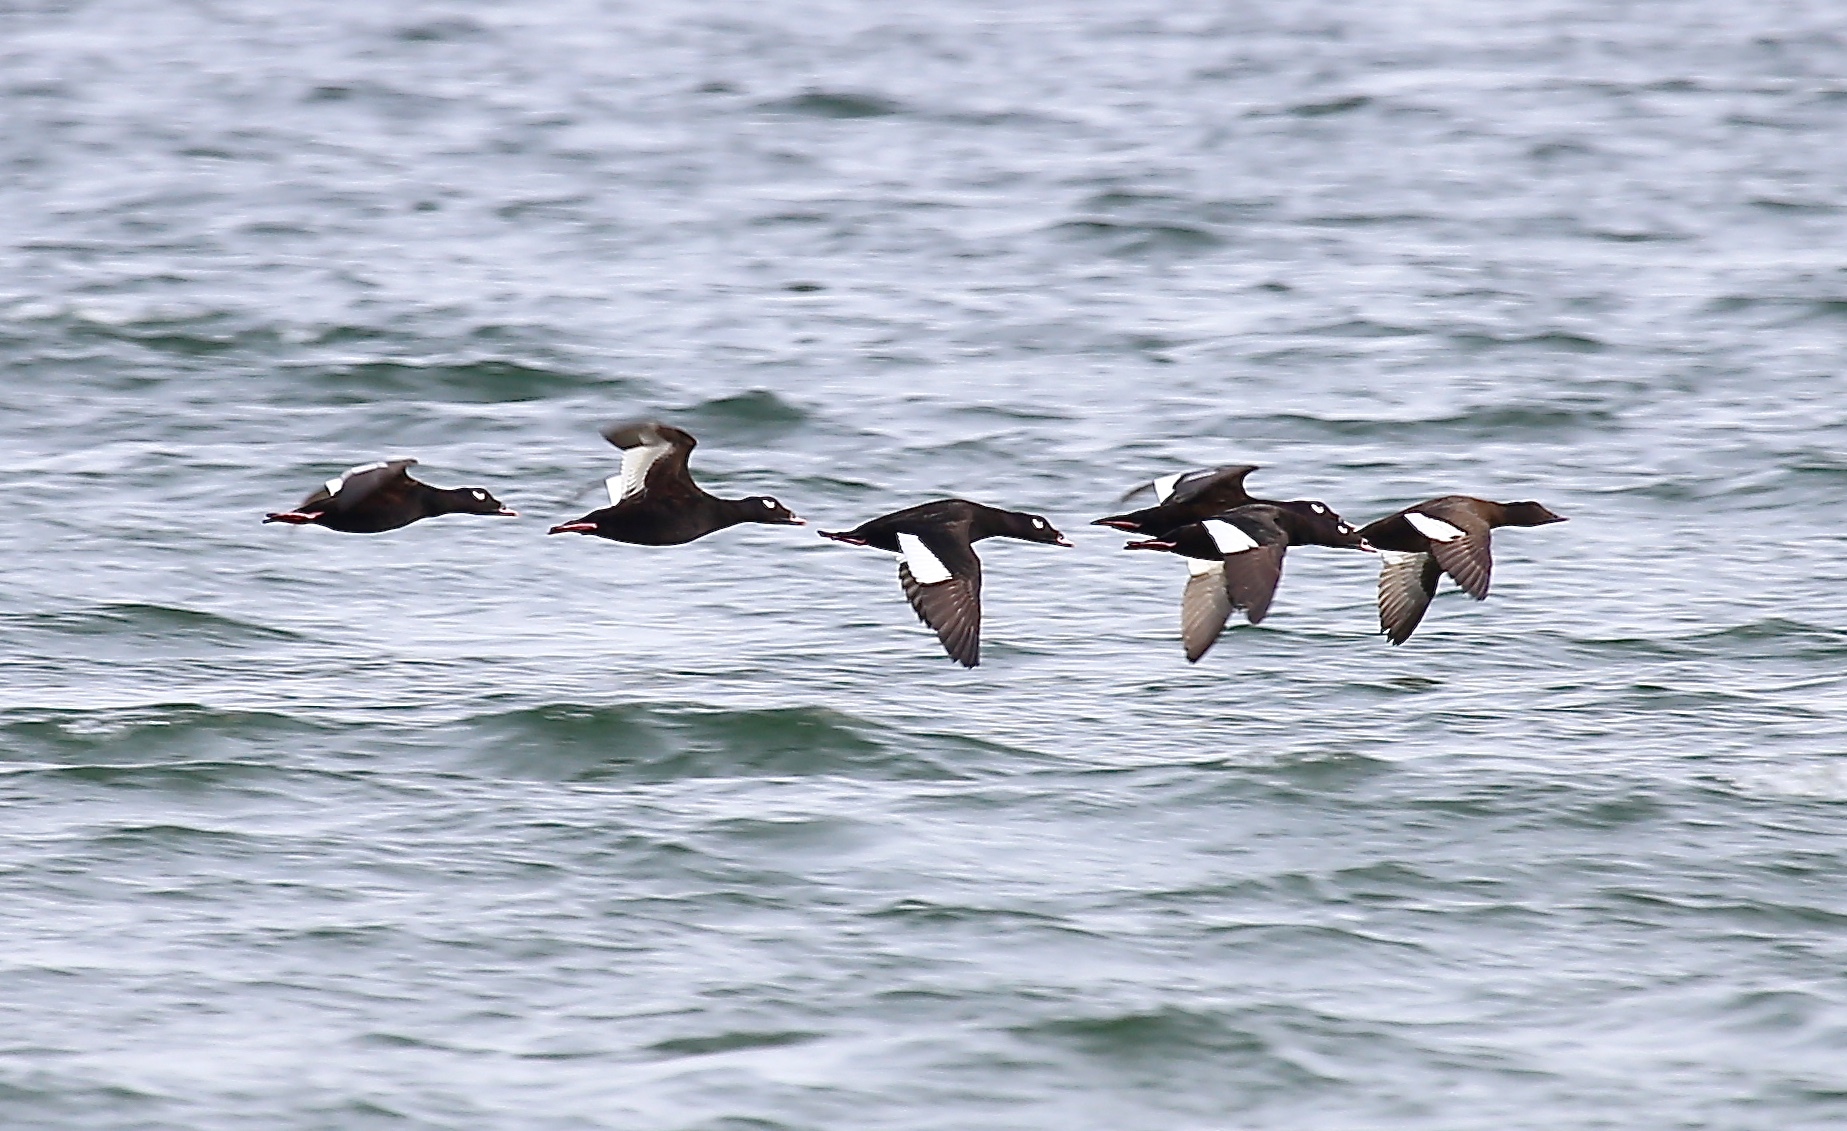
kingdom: Animalia
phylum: Chordata
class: Aves
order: Anseriformes
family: Anatidae
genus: Melanitta
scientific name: Melanitta deglandi
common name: White-winged scoter
